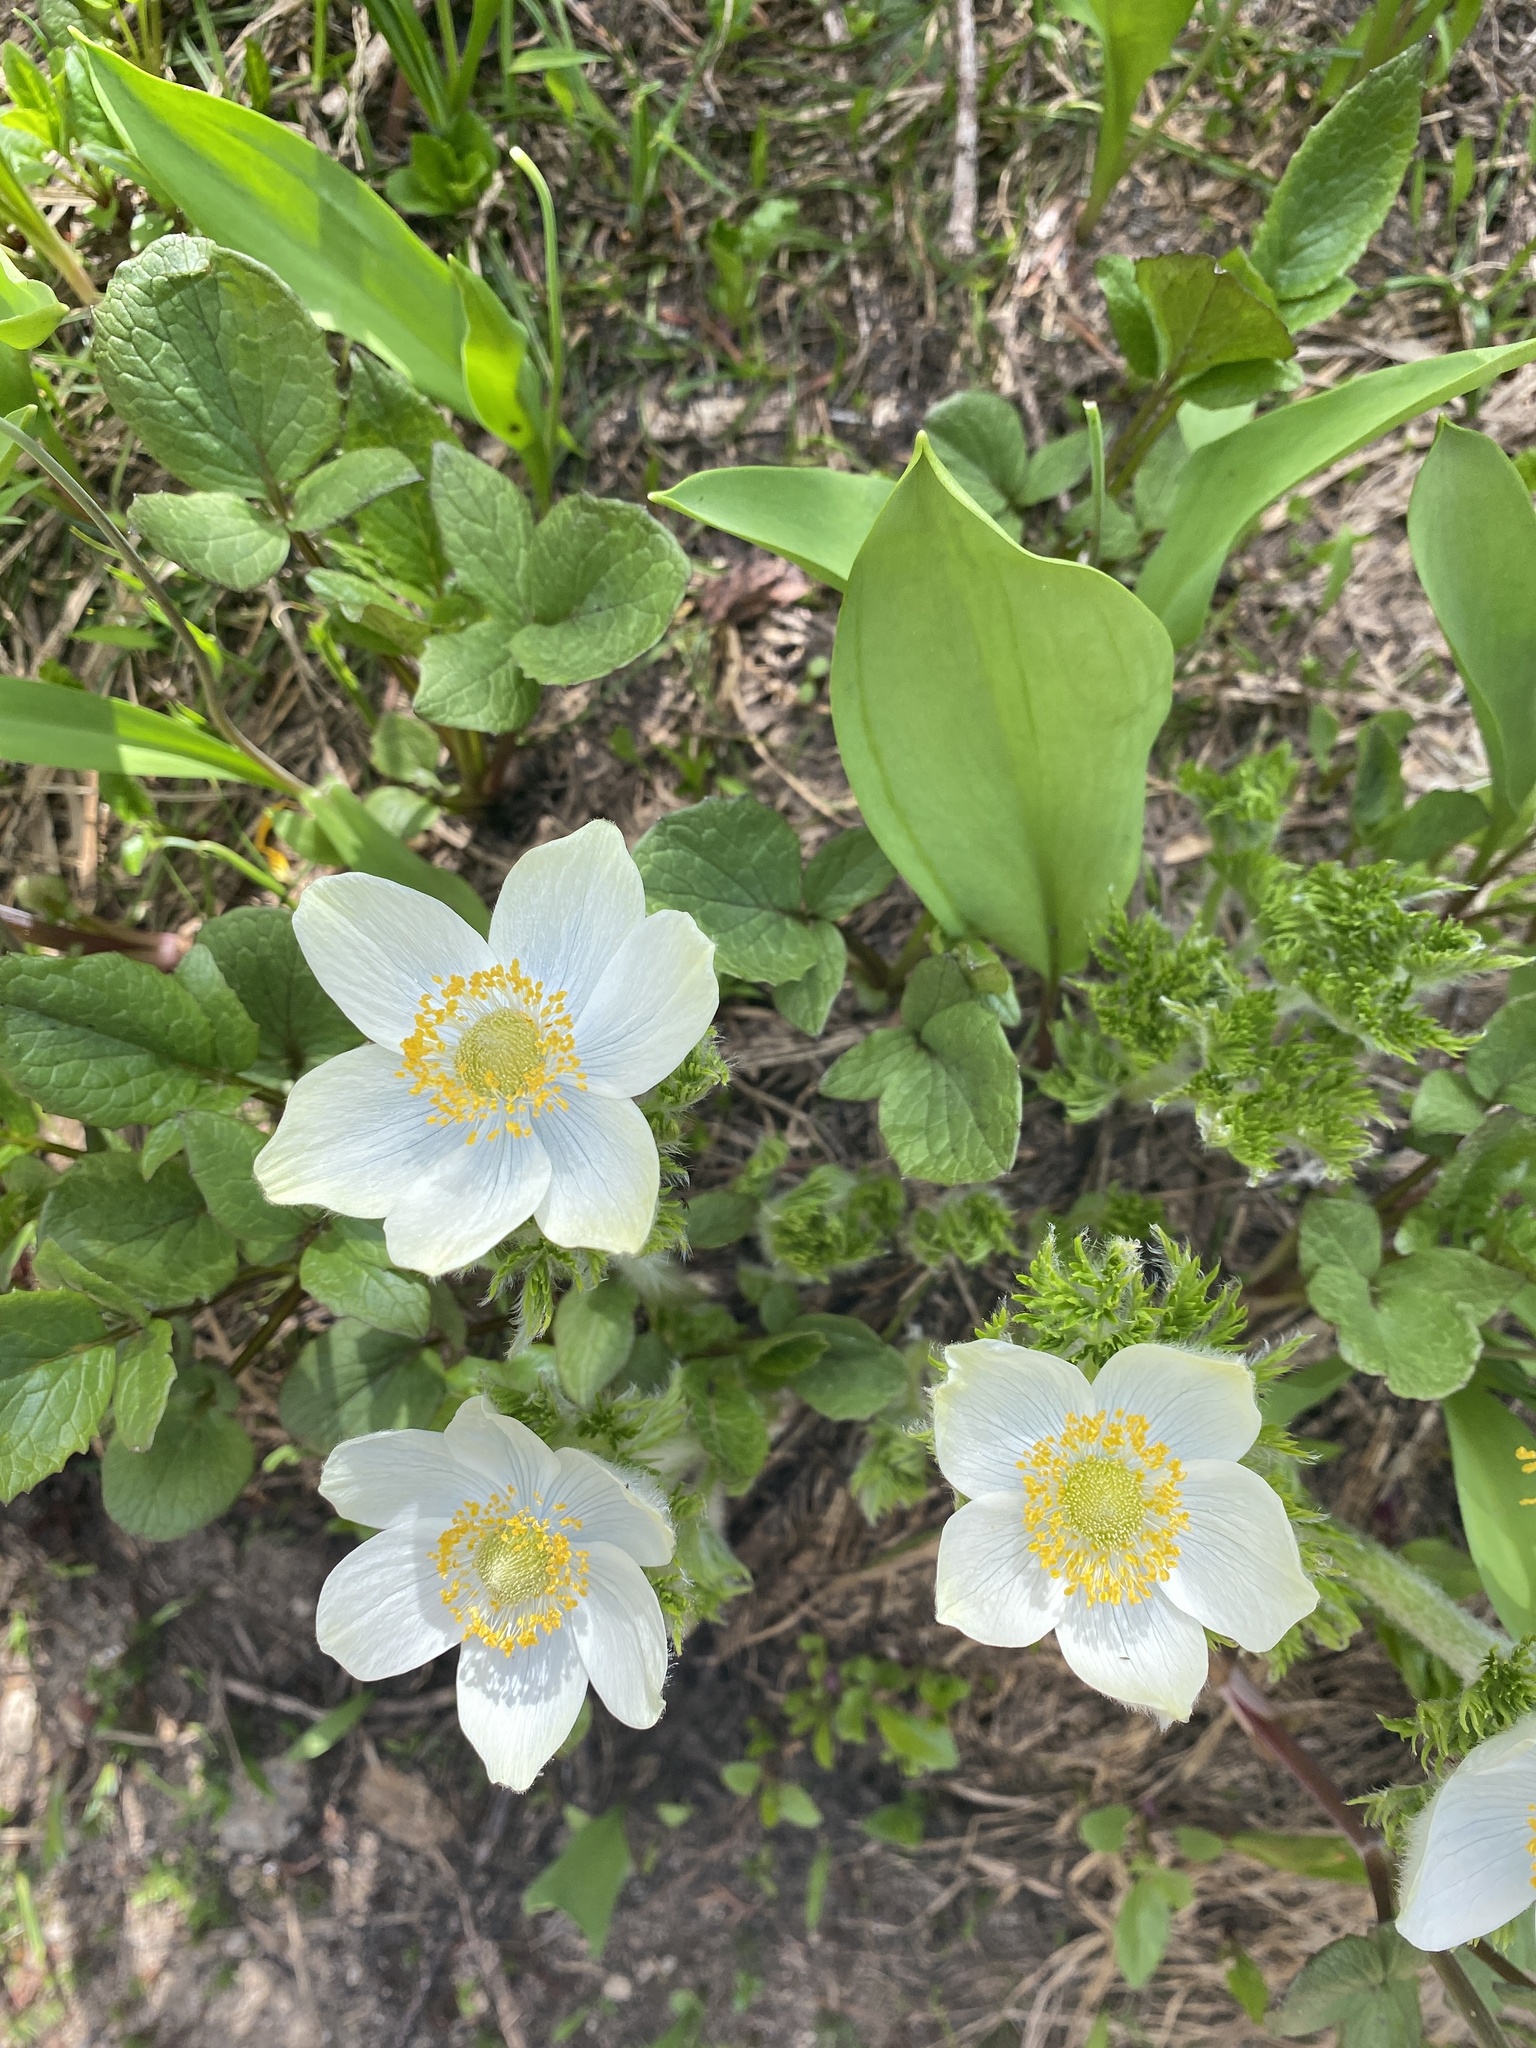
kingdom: Plantae
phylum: Tracheophyta
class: Magnoliopsida
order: Ranunculales
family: Ranunculaceae
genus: Pulsatilla
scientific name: Pulsatilla occidentalis
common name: Mountain pasqueflower
